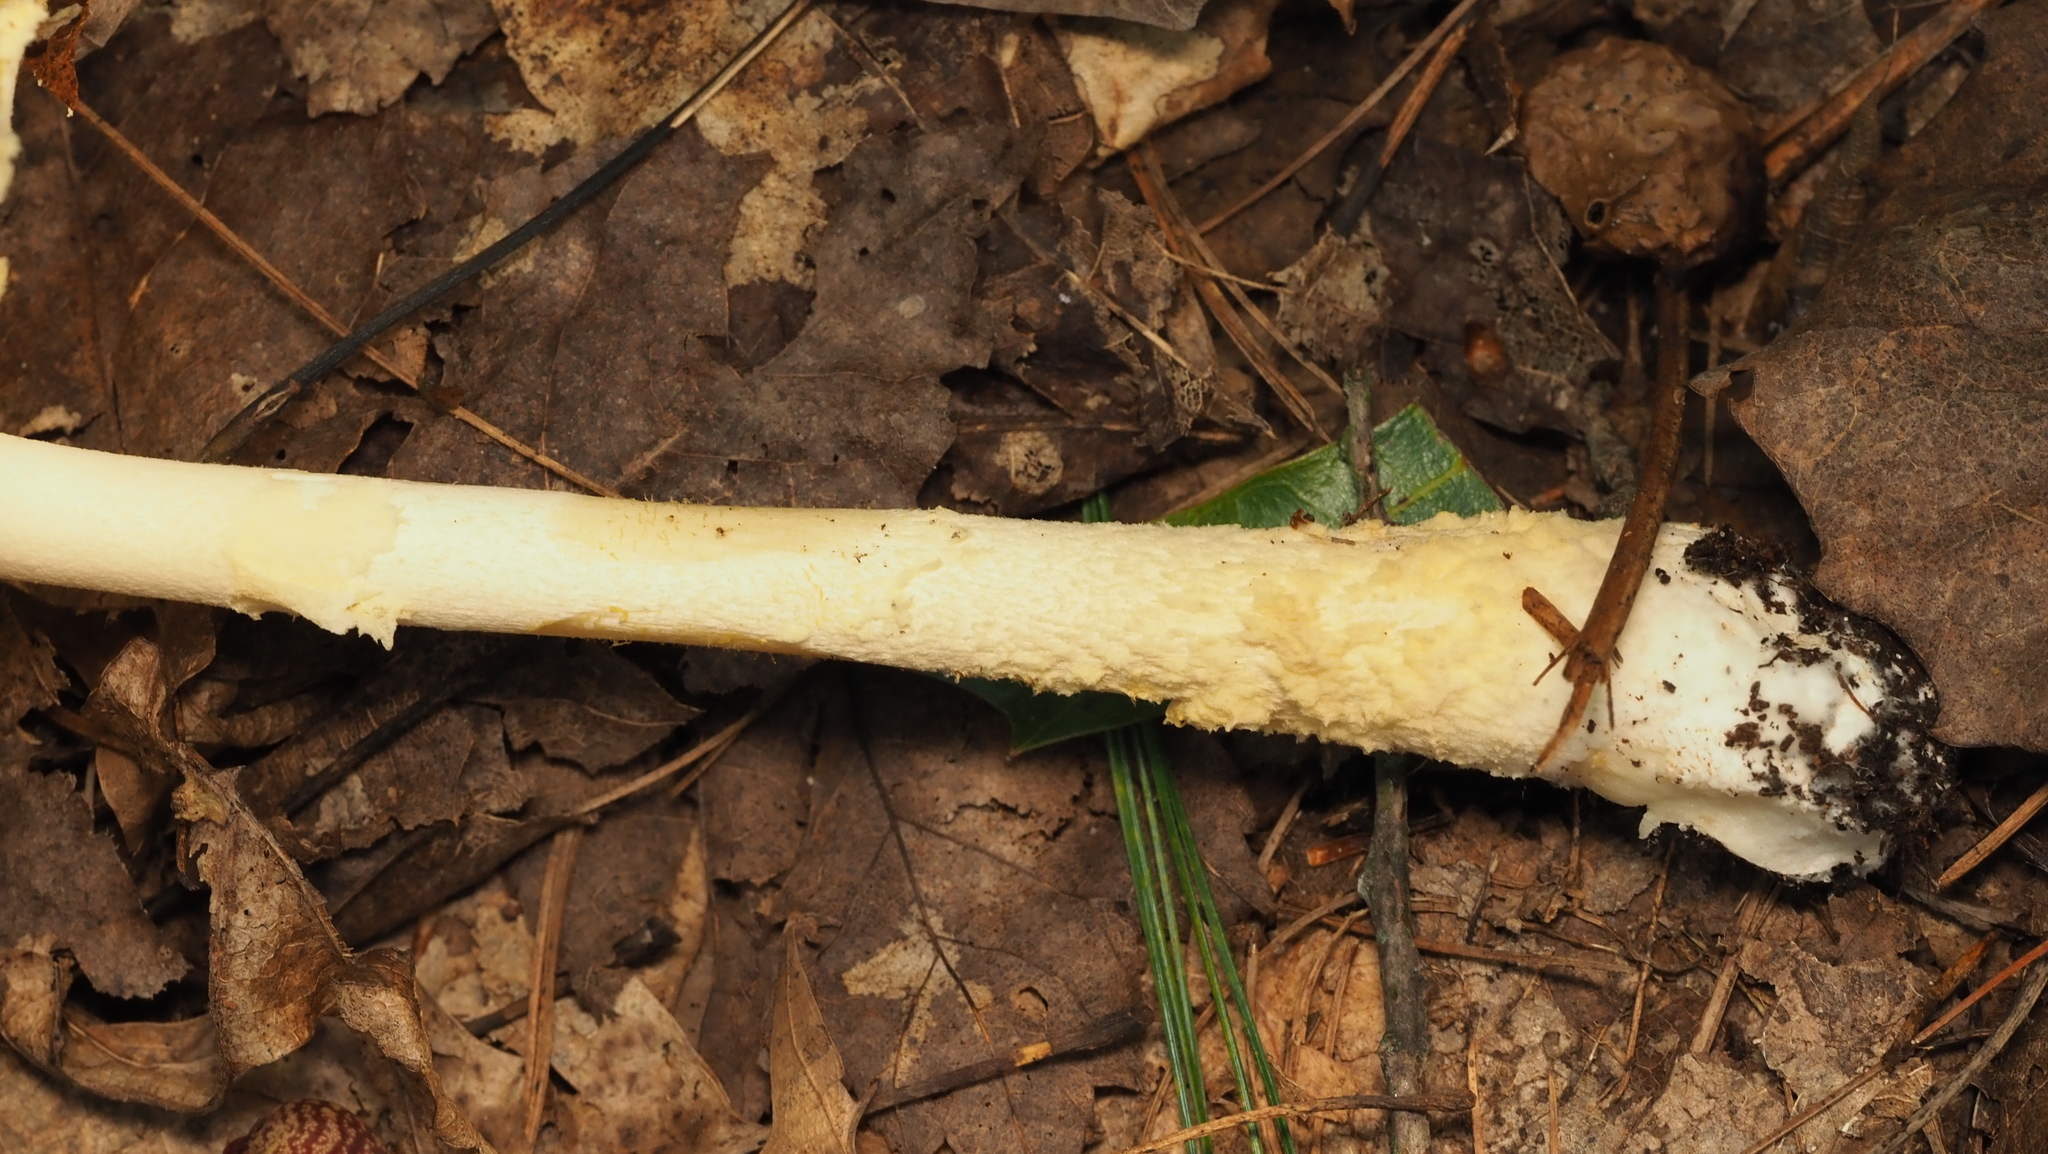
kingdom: Fungi
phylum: Basidiomycota
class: Agaricomycetes
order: Agaricales
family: Amanitaceae
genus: Amanita
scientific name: Amanita muscaria
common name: Fly agaric
